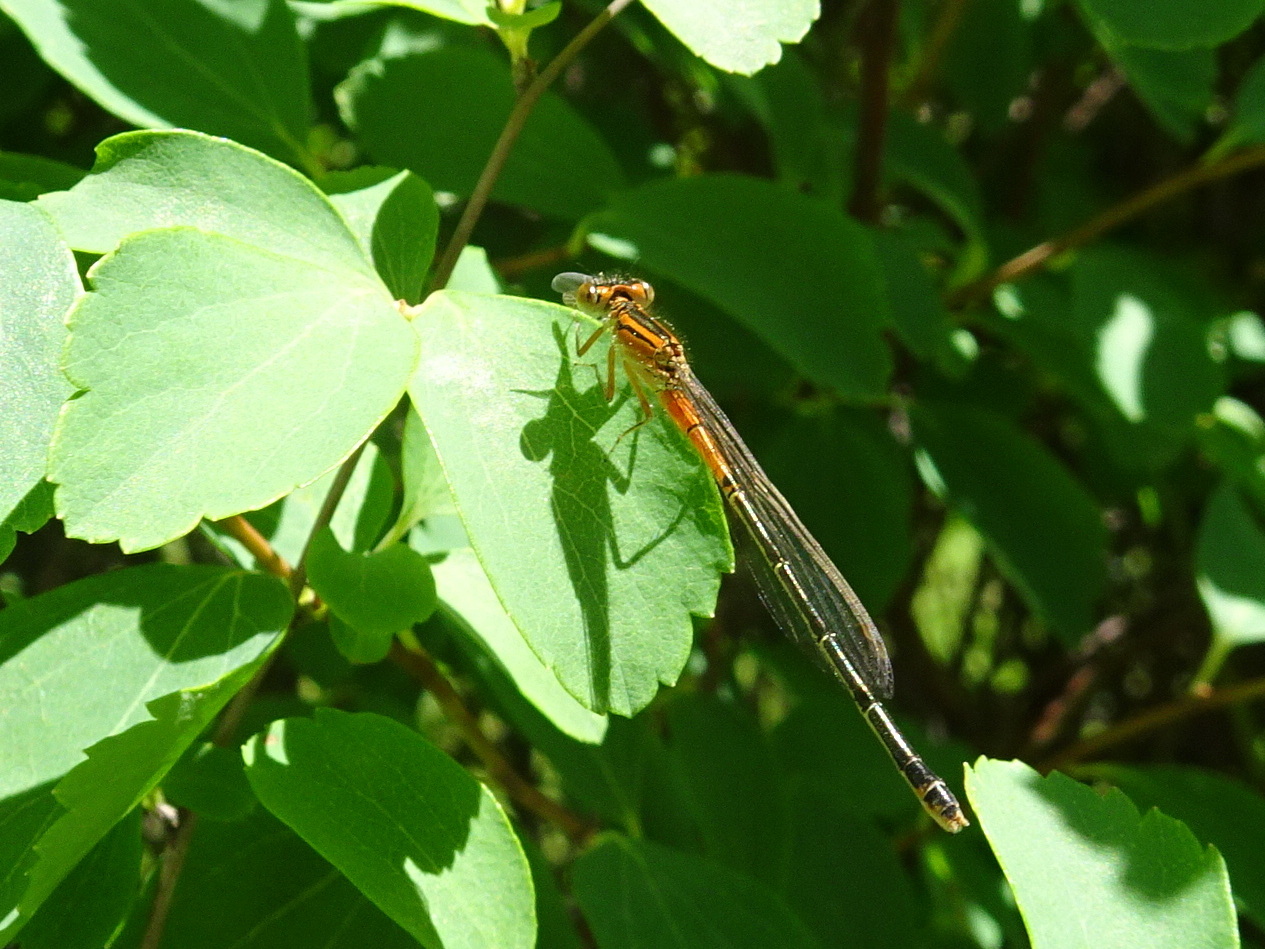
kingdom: Animalia
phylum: Arthropoda
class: Insecta
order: Odonata
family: Coenagrionidae
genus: Ischnura
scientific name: Ischnura verticalis
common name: Eastern forktail
